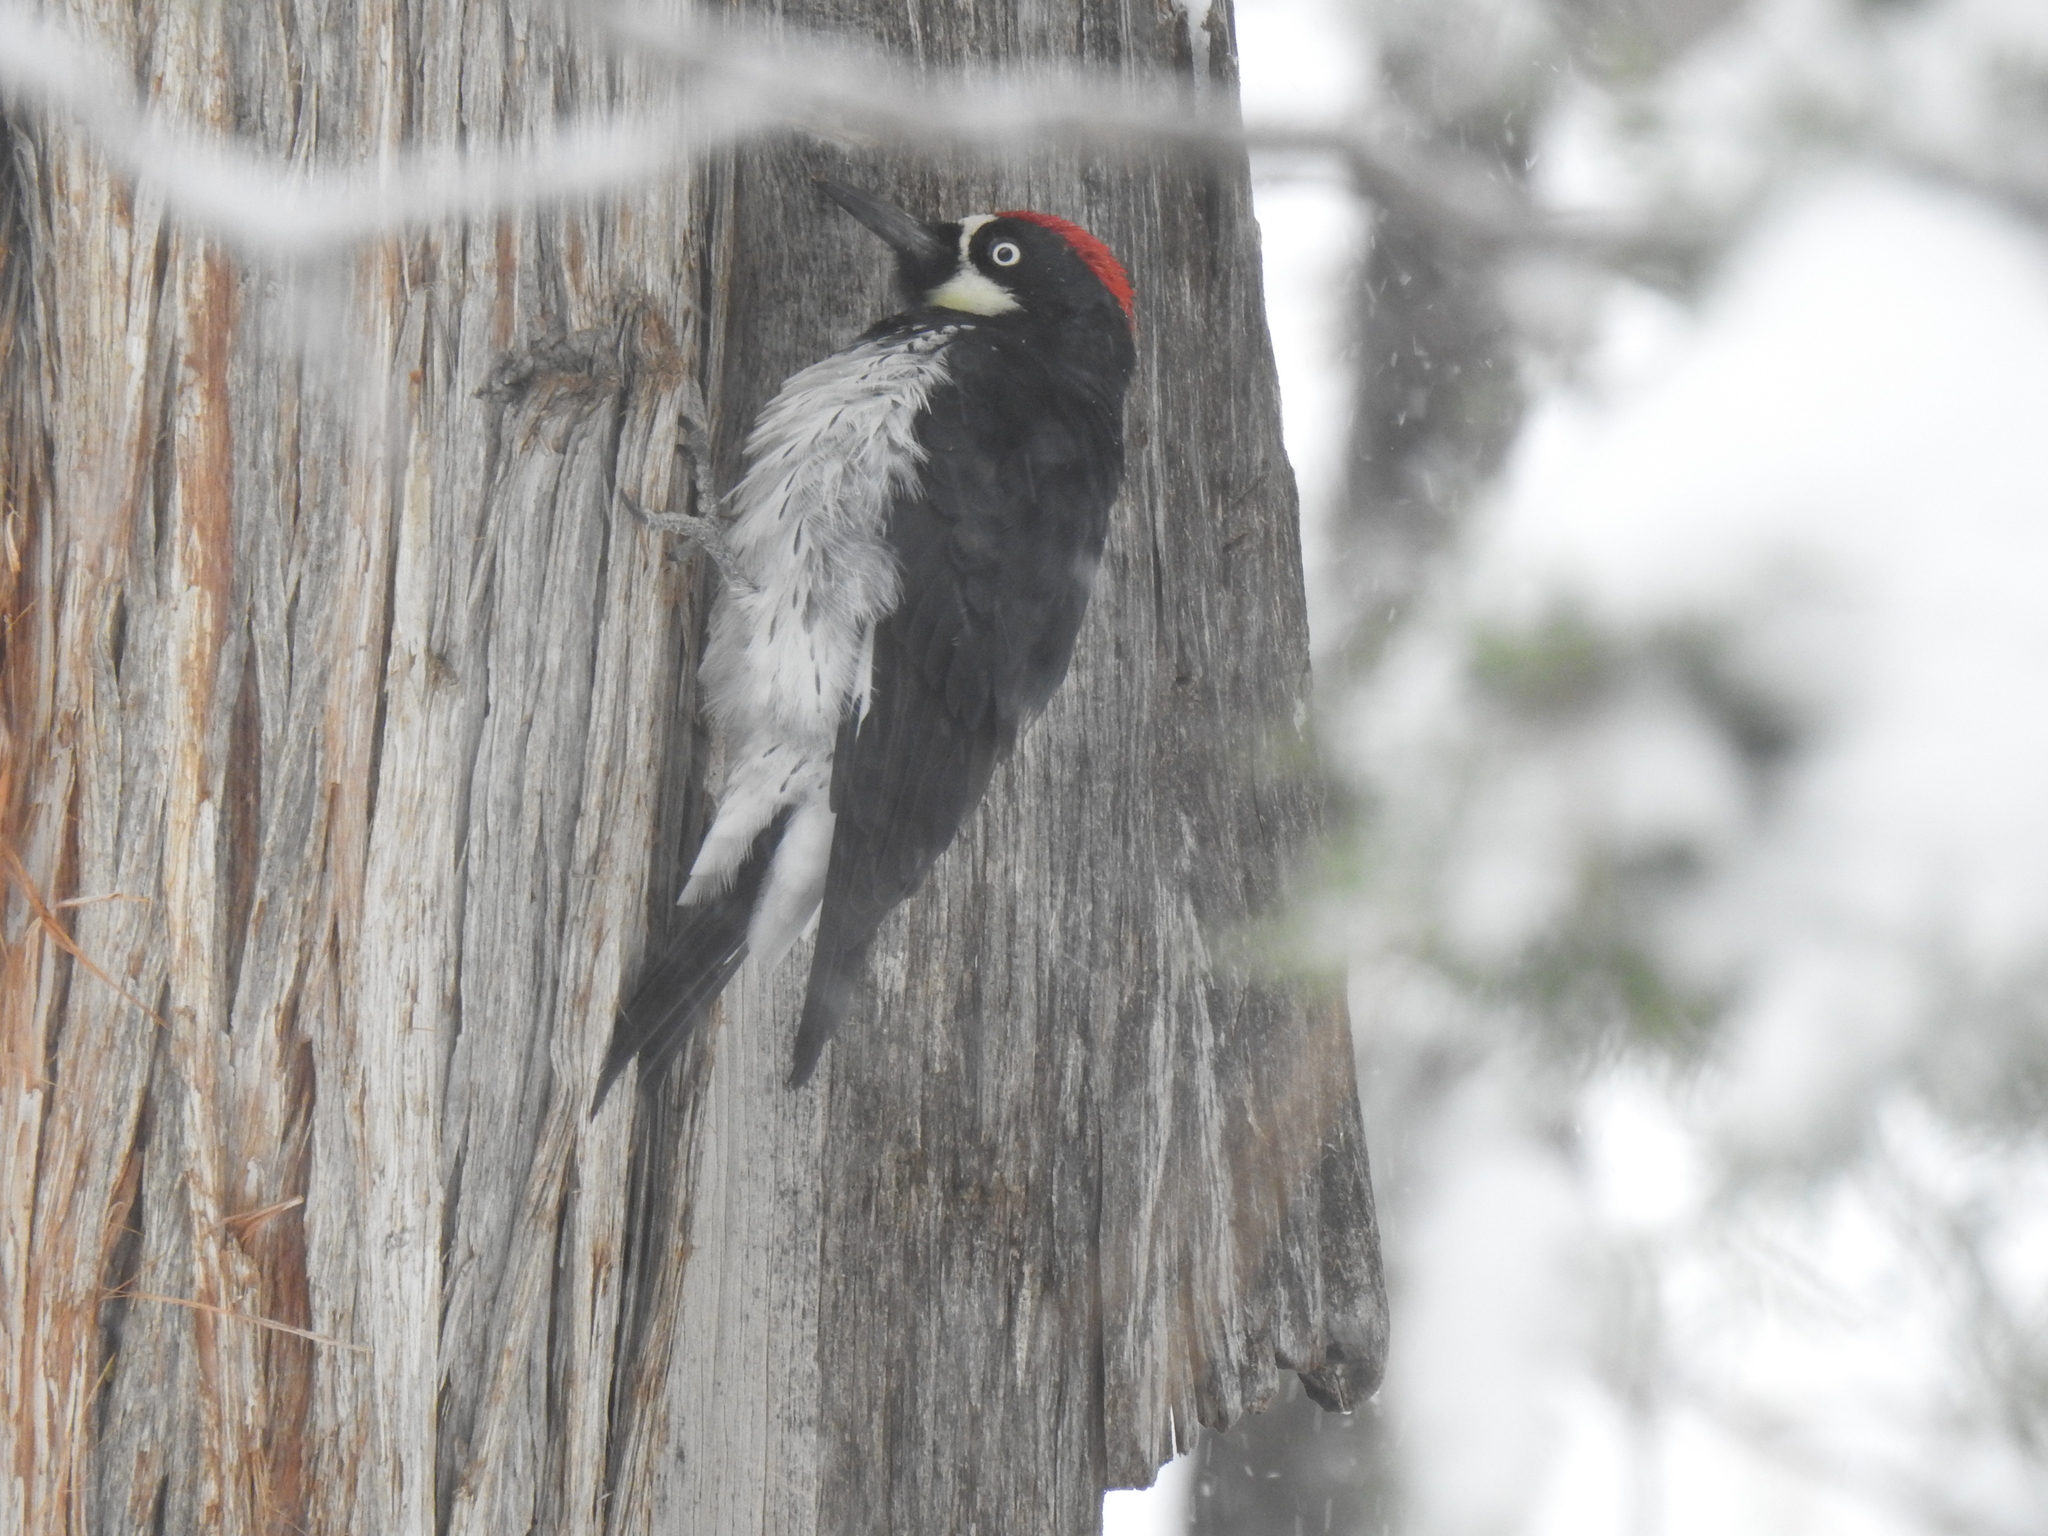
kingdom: Animalia
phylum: Chordata
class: Aves
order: Piciformes
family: Picidae
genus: Melanerpes
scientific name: Melanerpes formicivorus
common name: Acorn woodpecker
